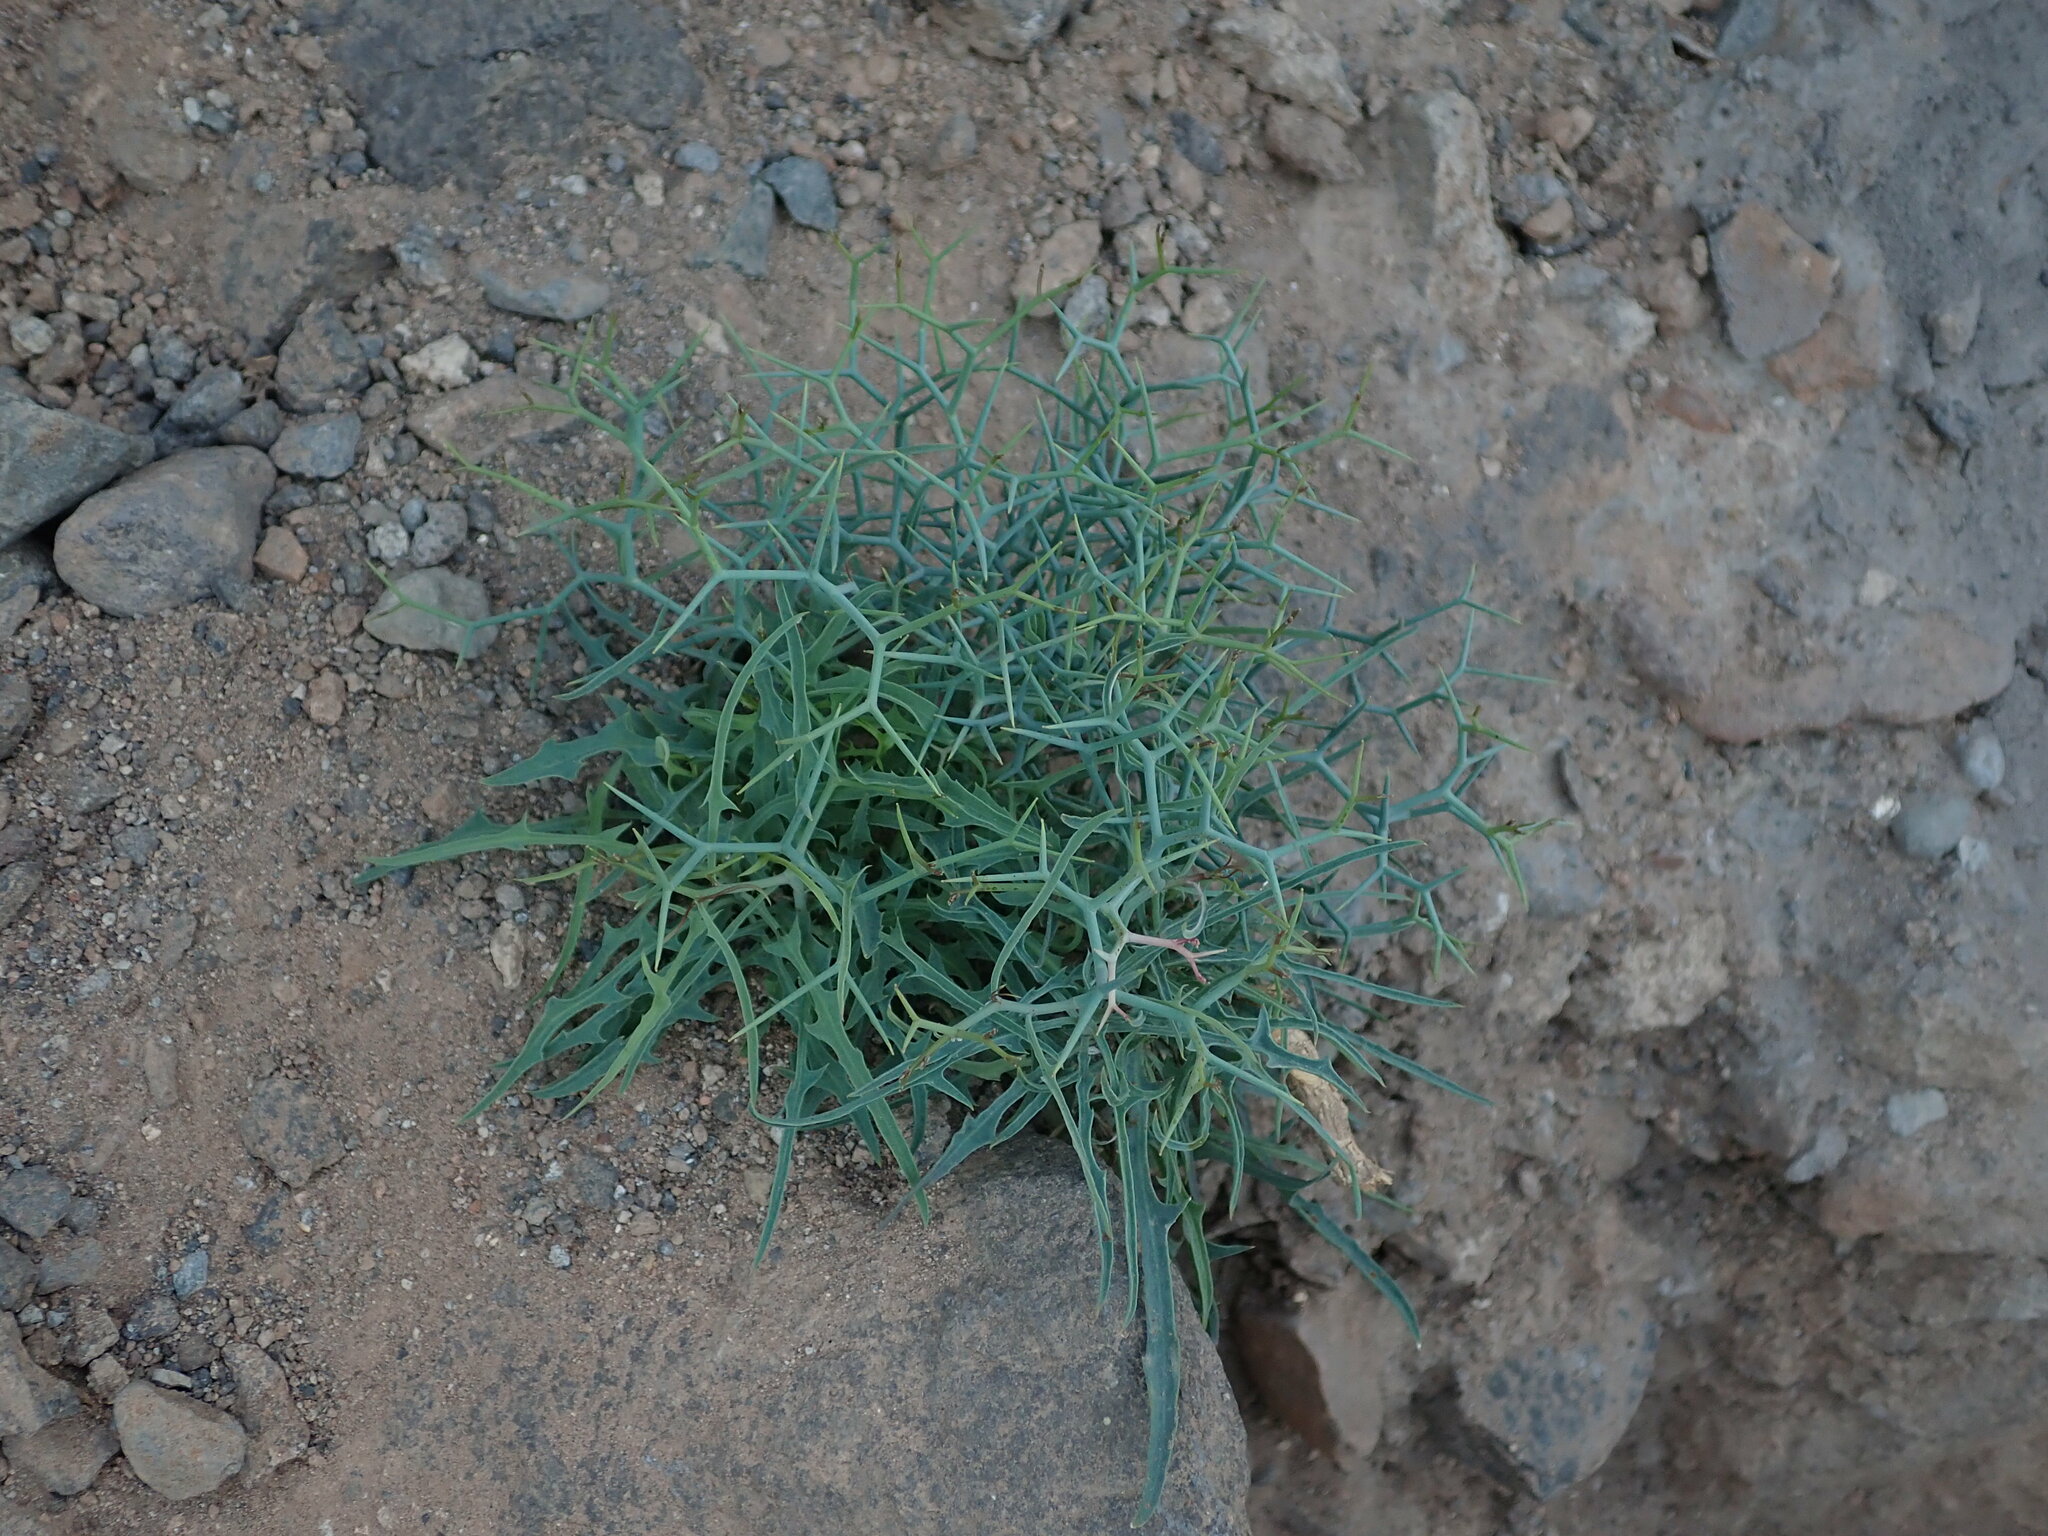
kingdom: Plantae
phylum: Tracheophyta
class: Magnoliopsida
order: Asterales
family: Asteraceae
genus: Launaea
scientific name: Launaea arborescens
